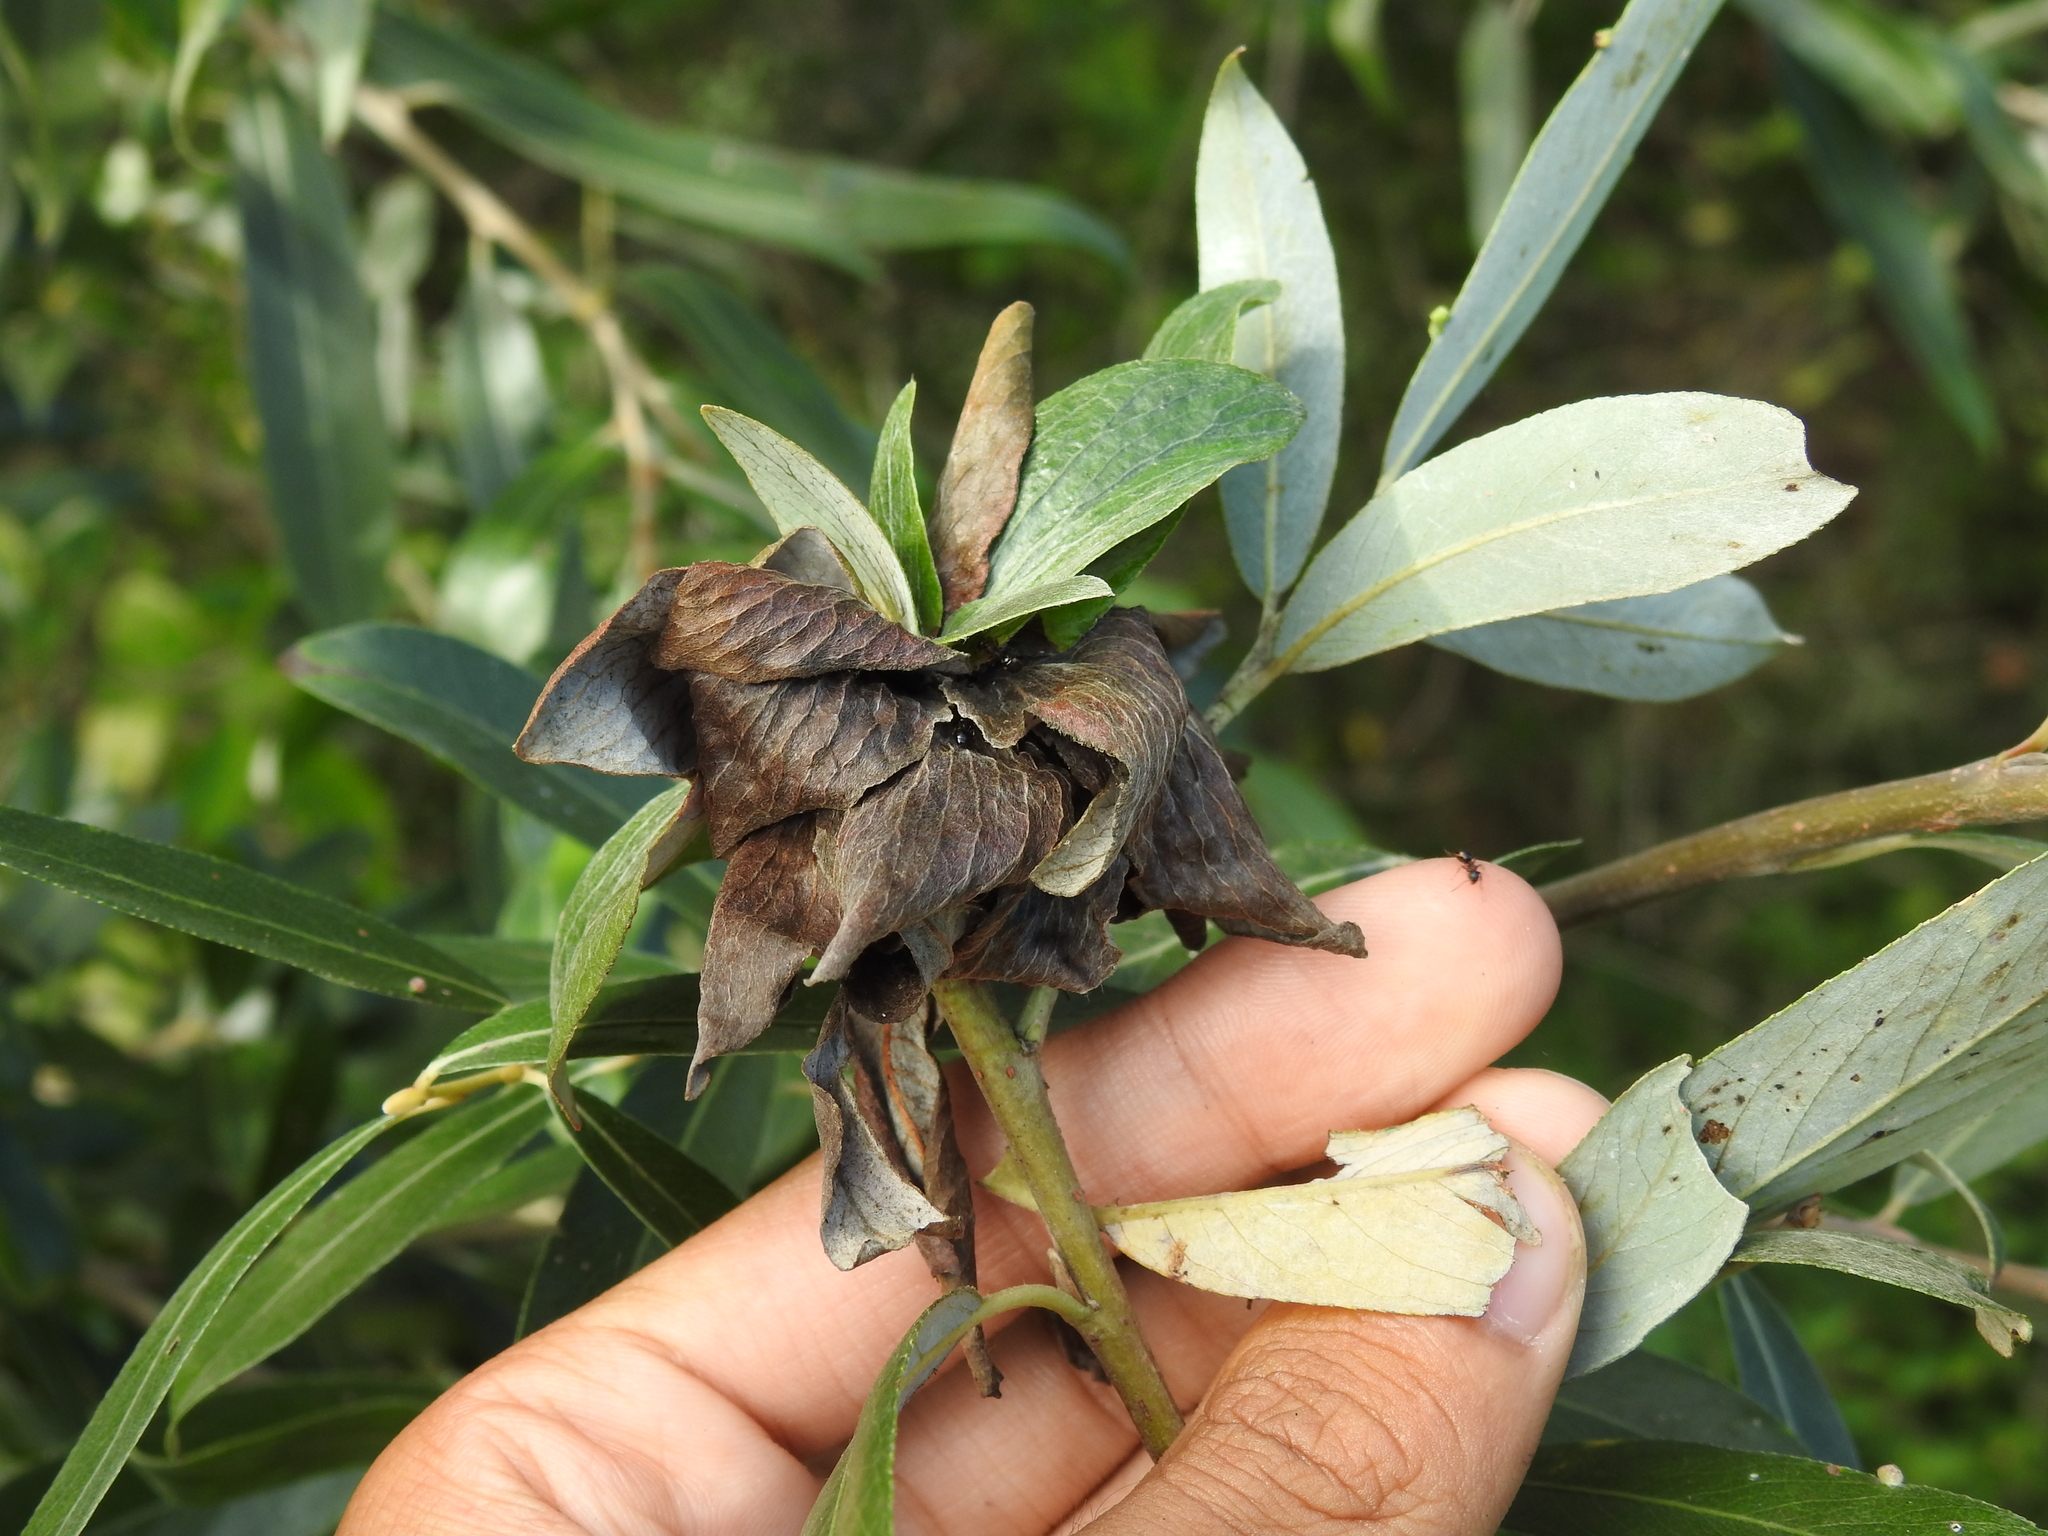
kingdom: Animalia
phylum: Arthropoda
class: Insecta
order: Diptera
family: Cecidomyiidae
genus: Rabdophaga
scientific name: Rabdophaga rosaria
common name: Willow rose gall midge
